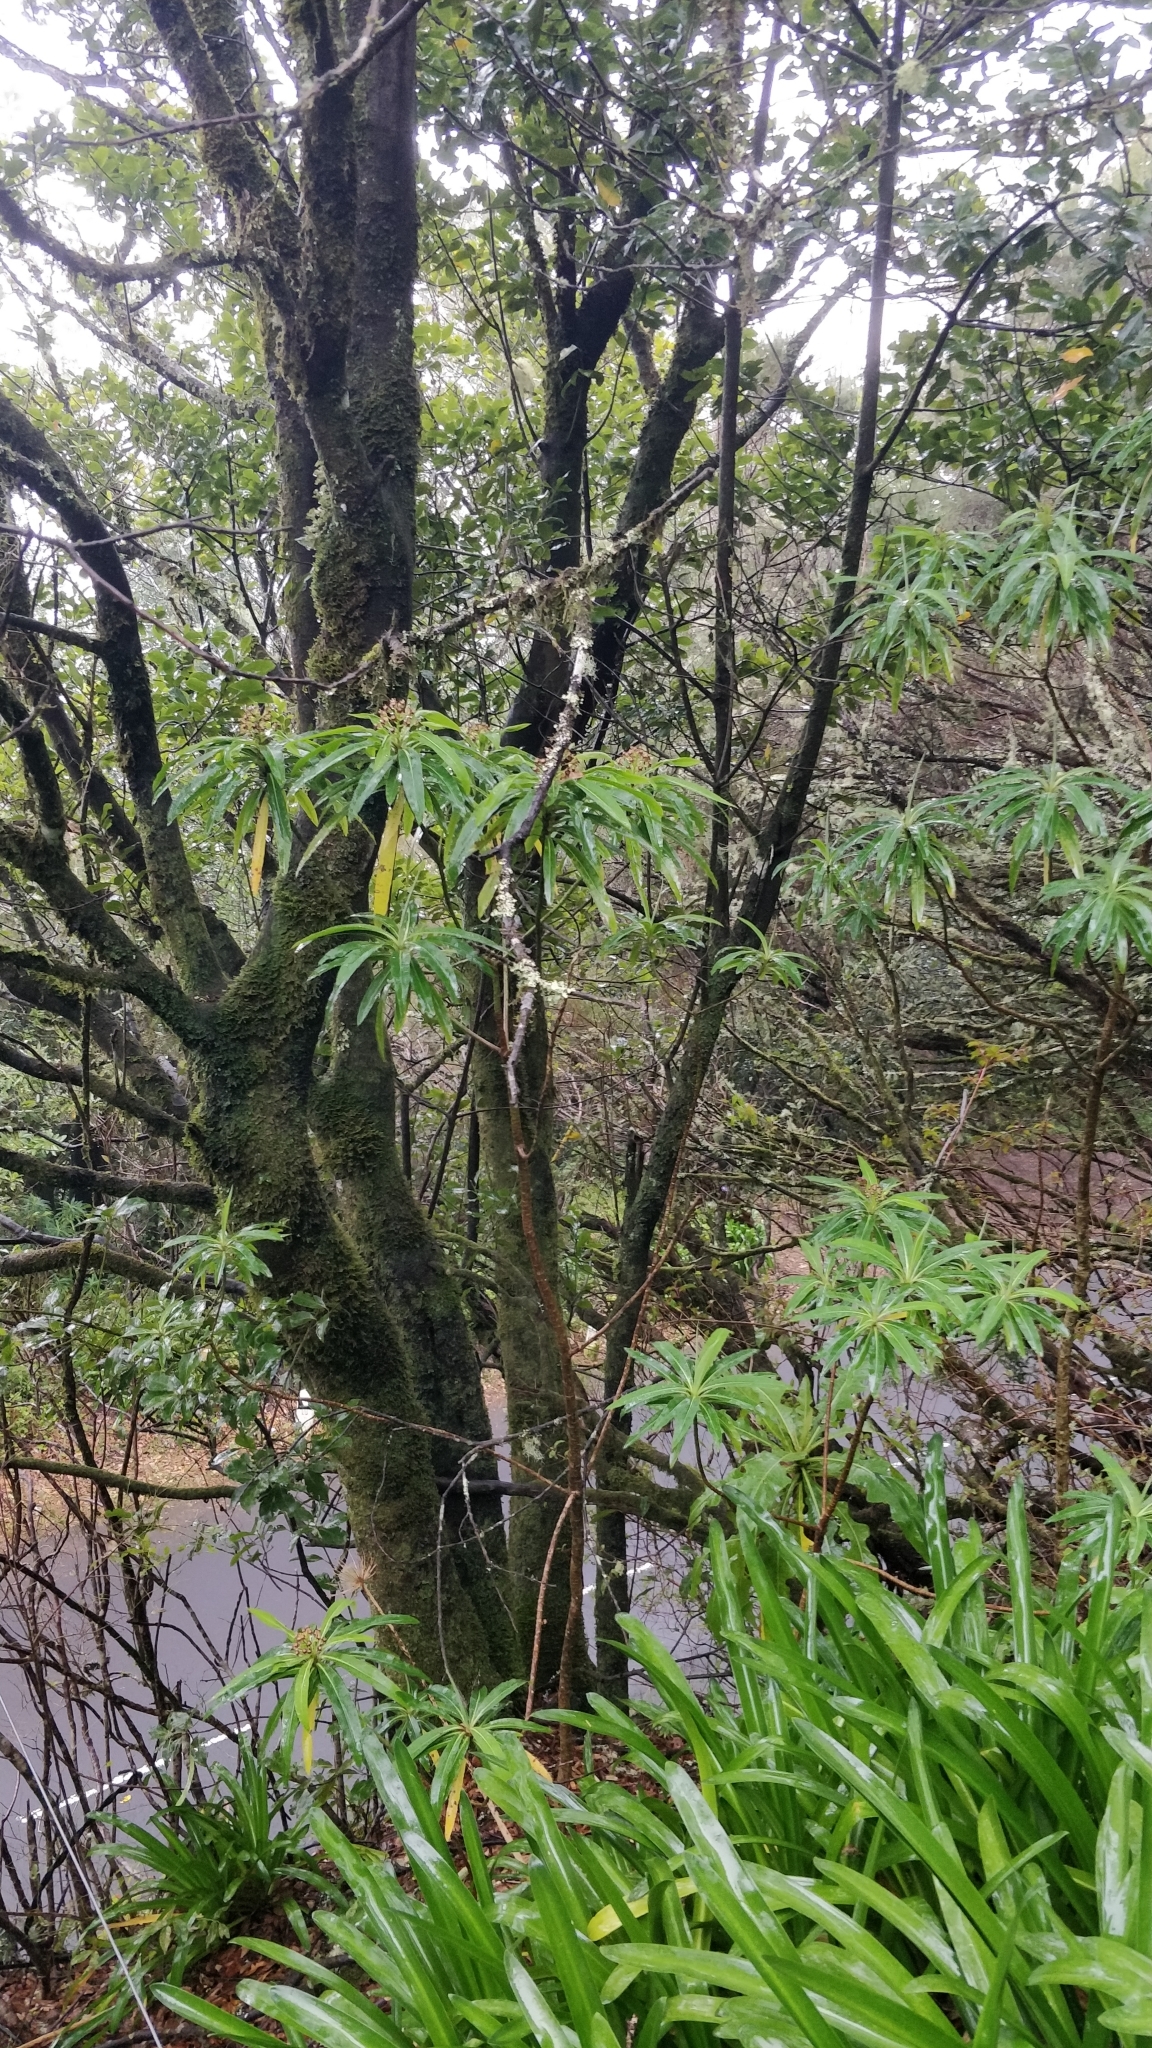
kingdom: Plantae
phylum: Tracheophyta
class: Magnoliopsida
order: Malpighiales
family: Euphorbiaceae
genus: Euphorbia
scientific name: Euphorbia mellifera
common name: Canary spurge
